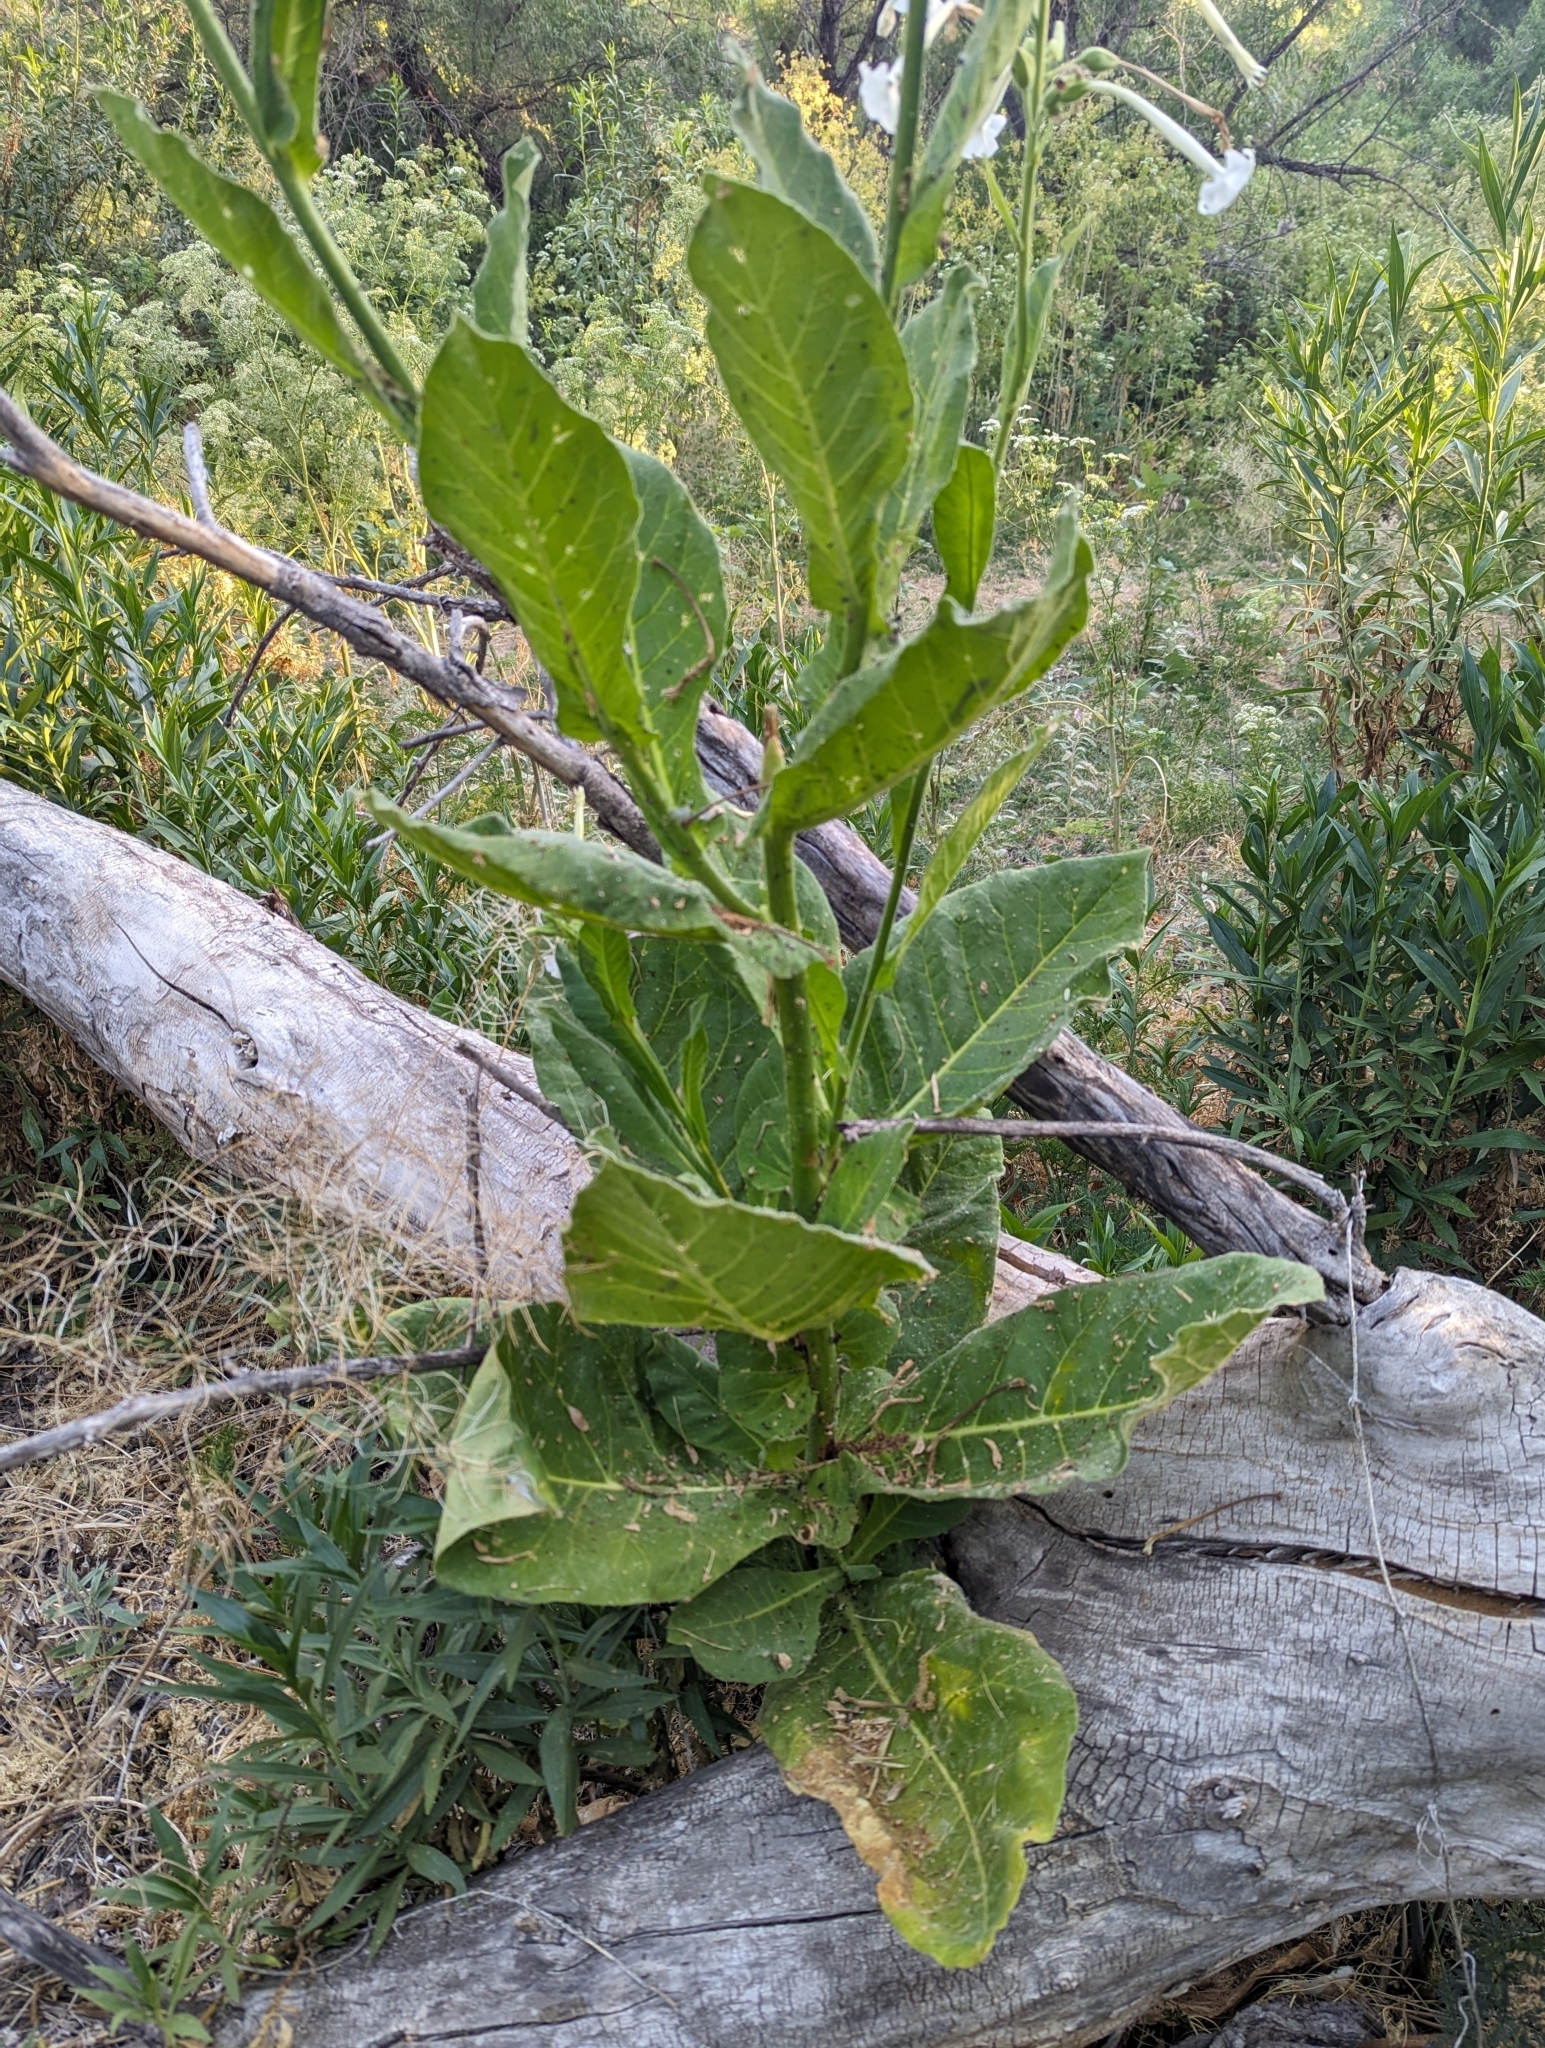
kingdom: Plantae
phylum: Tracheophyta
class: Magnoliopsida
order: Solanales
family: Solanaceae
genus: Nicotiana
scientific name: Nicotiana sylvestris
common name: Flowering tobacco
